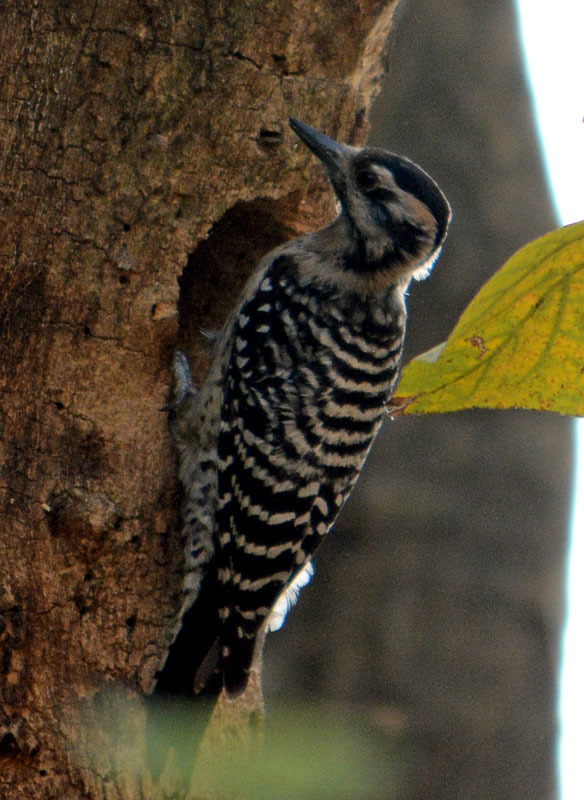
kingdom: Animalia
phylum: Chordata
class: Aves
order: Piciformes
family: Picidae
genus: Dryobates
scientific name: Dryobates scalaris
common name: Ladder-backed woodpecker
